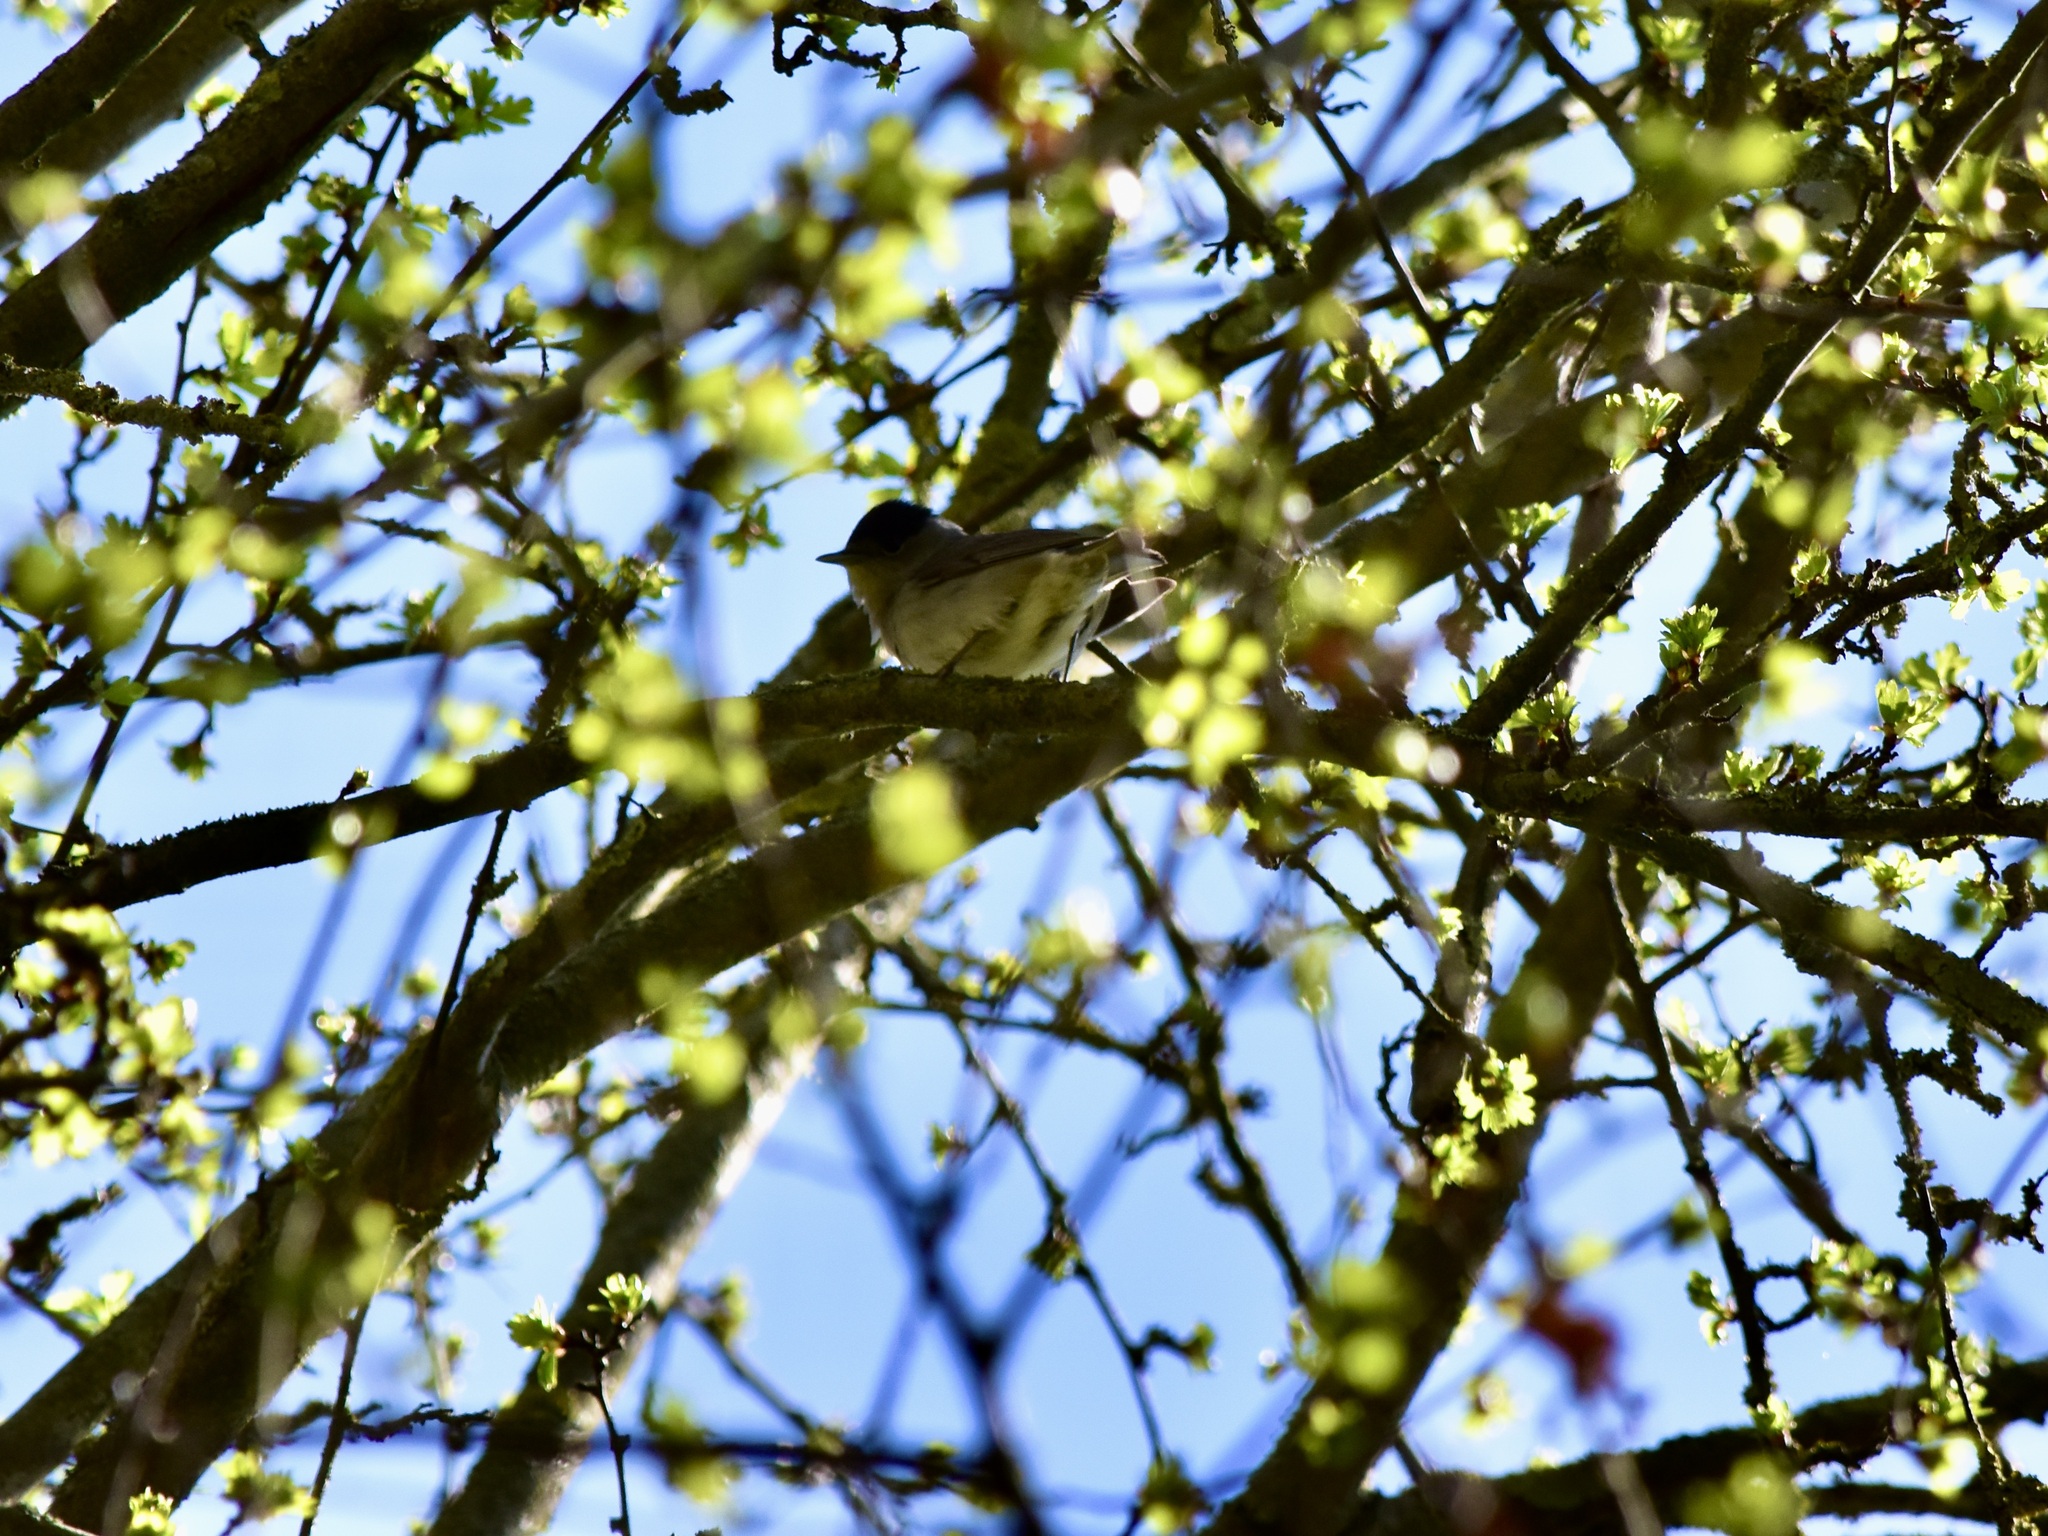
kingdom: Animalia
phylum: Chordata
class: Aves
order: Passeriformes
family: Sylviidae
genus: Sylvia
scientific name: Sylvia atricapilla
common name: Eurasian blackcap
